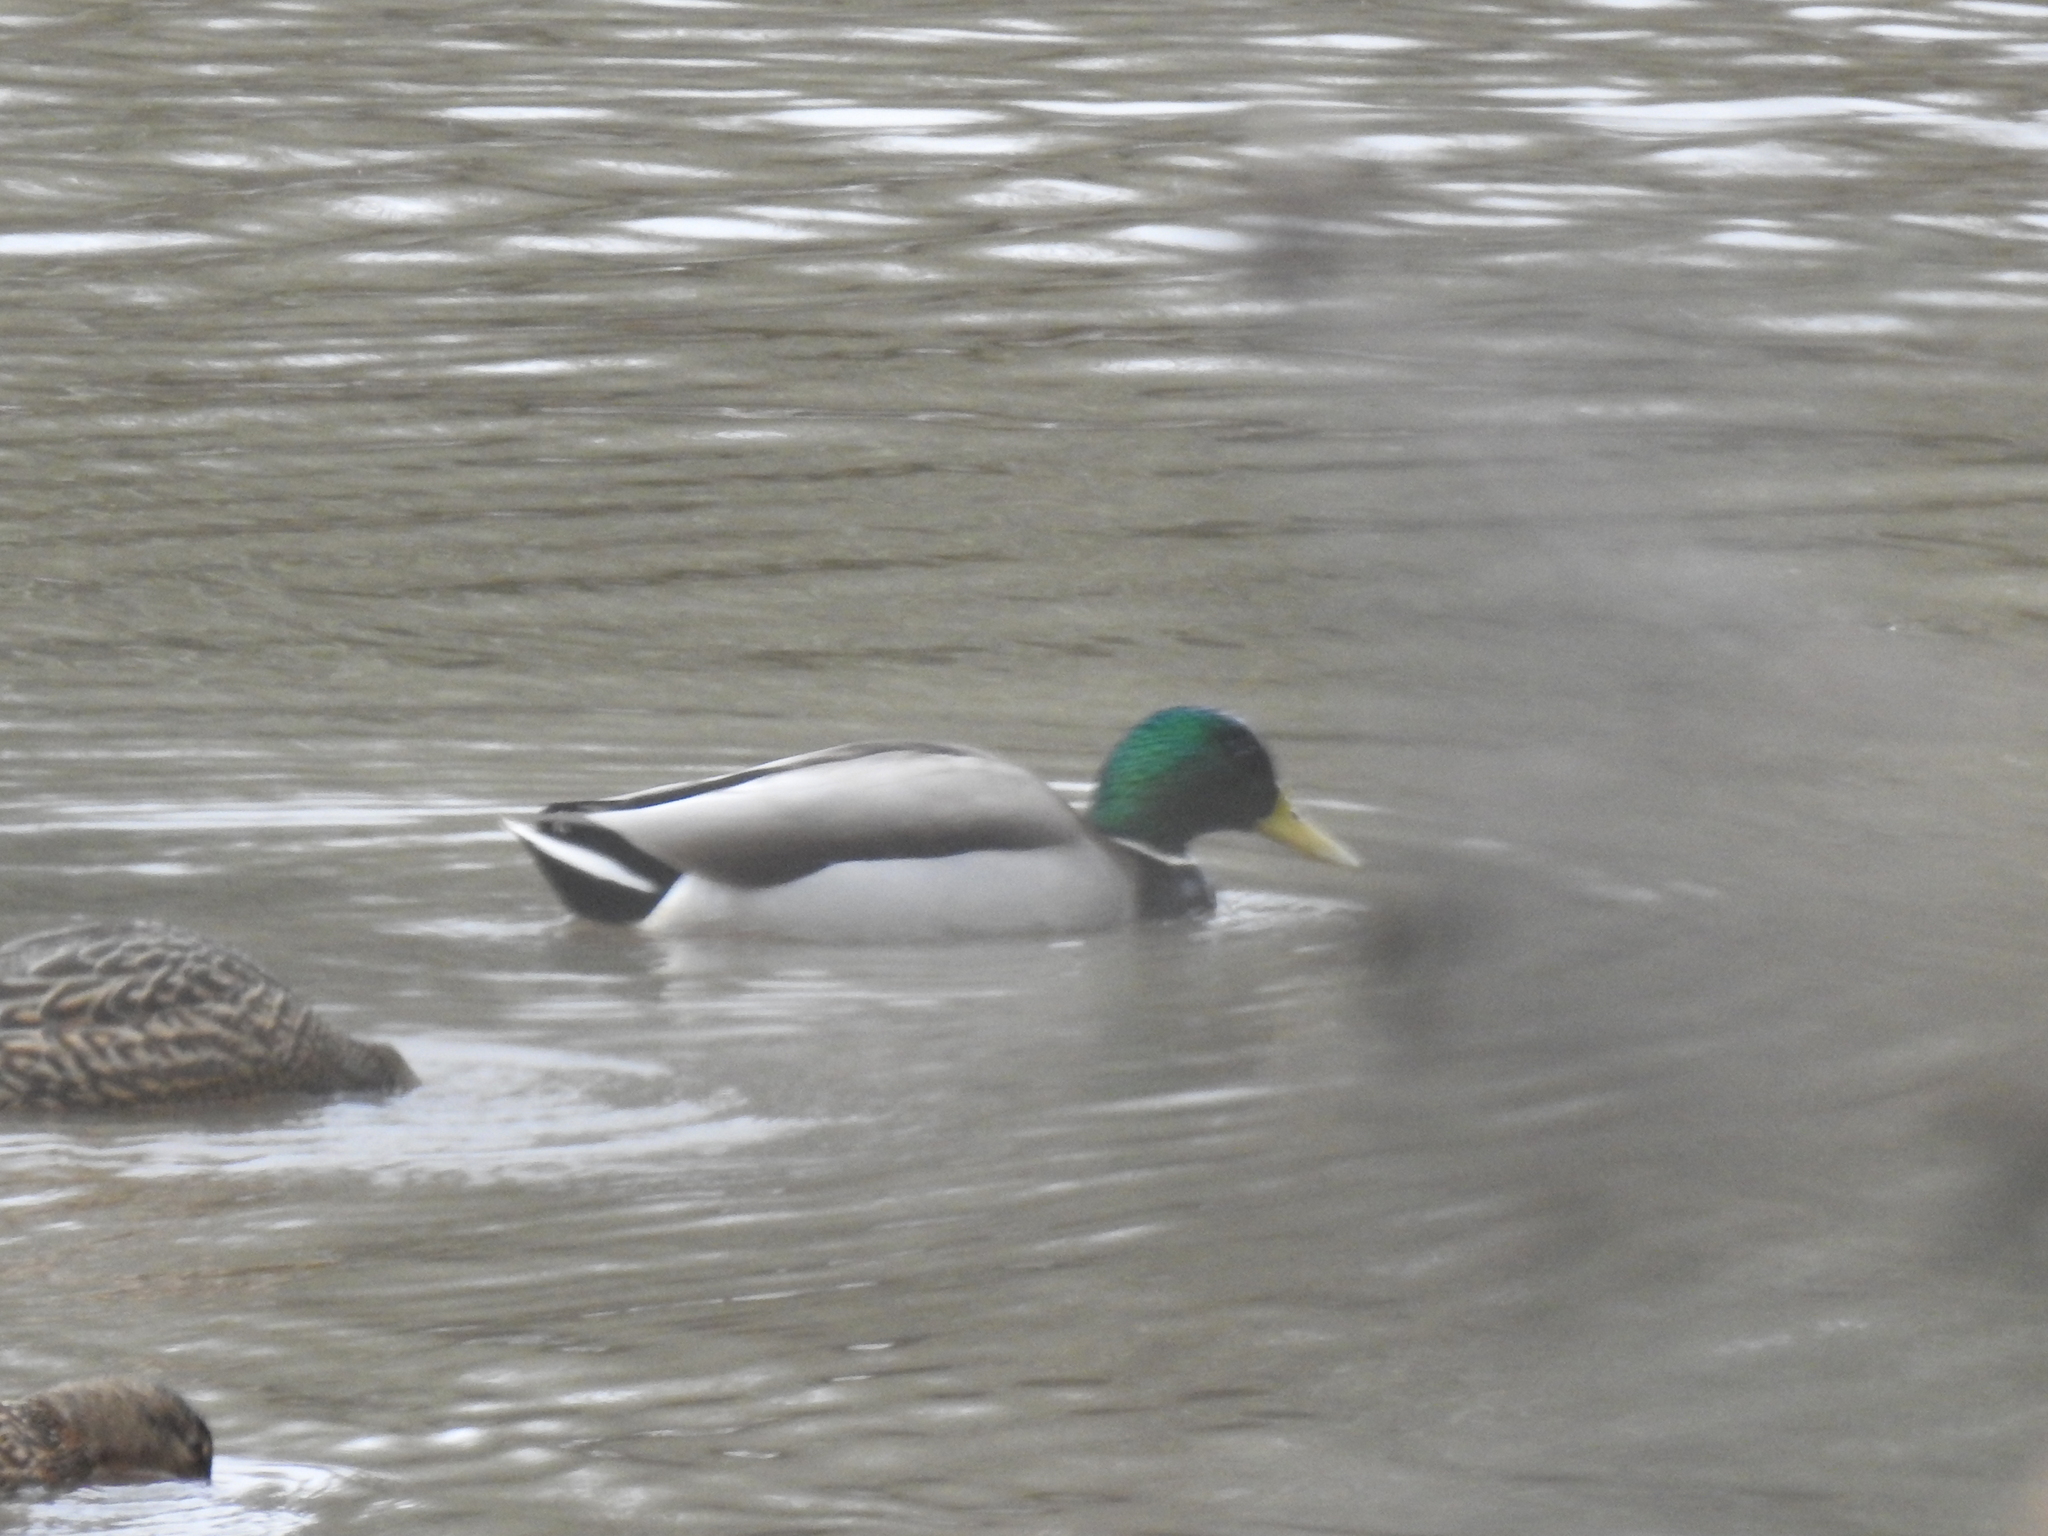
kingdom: Animalia
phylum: Chordata
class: Aves
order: Anseriformes
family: Anatidae
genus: Anas
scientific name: Anas platyrhynchos
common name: Mallard
